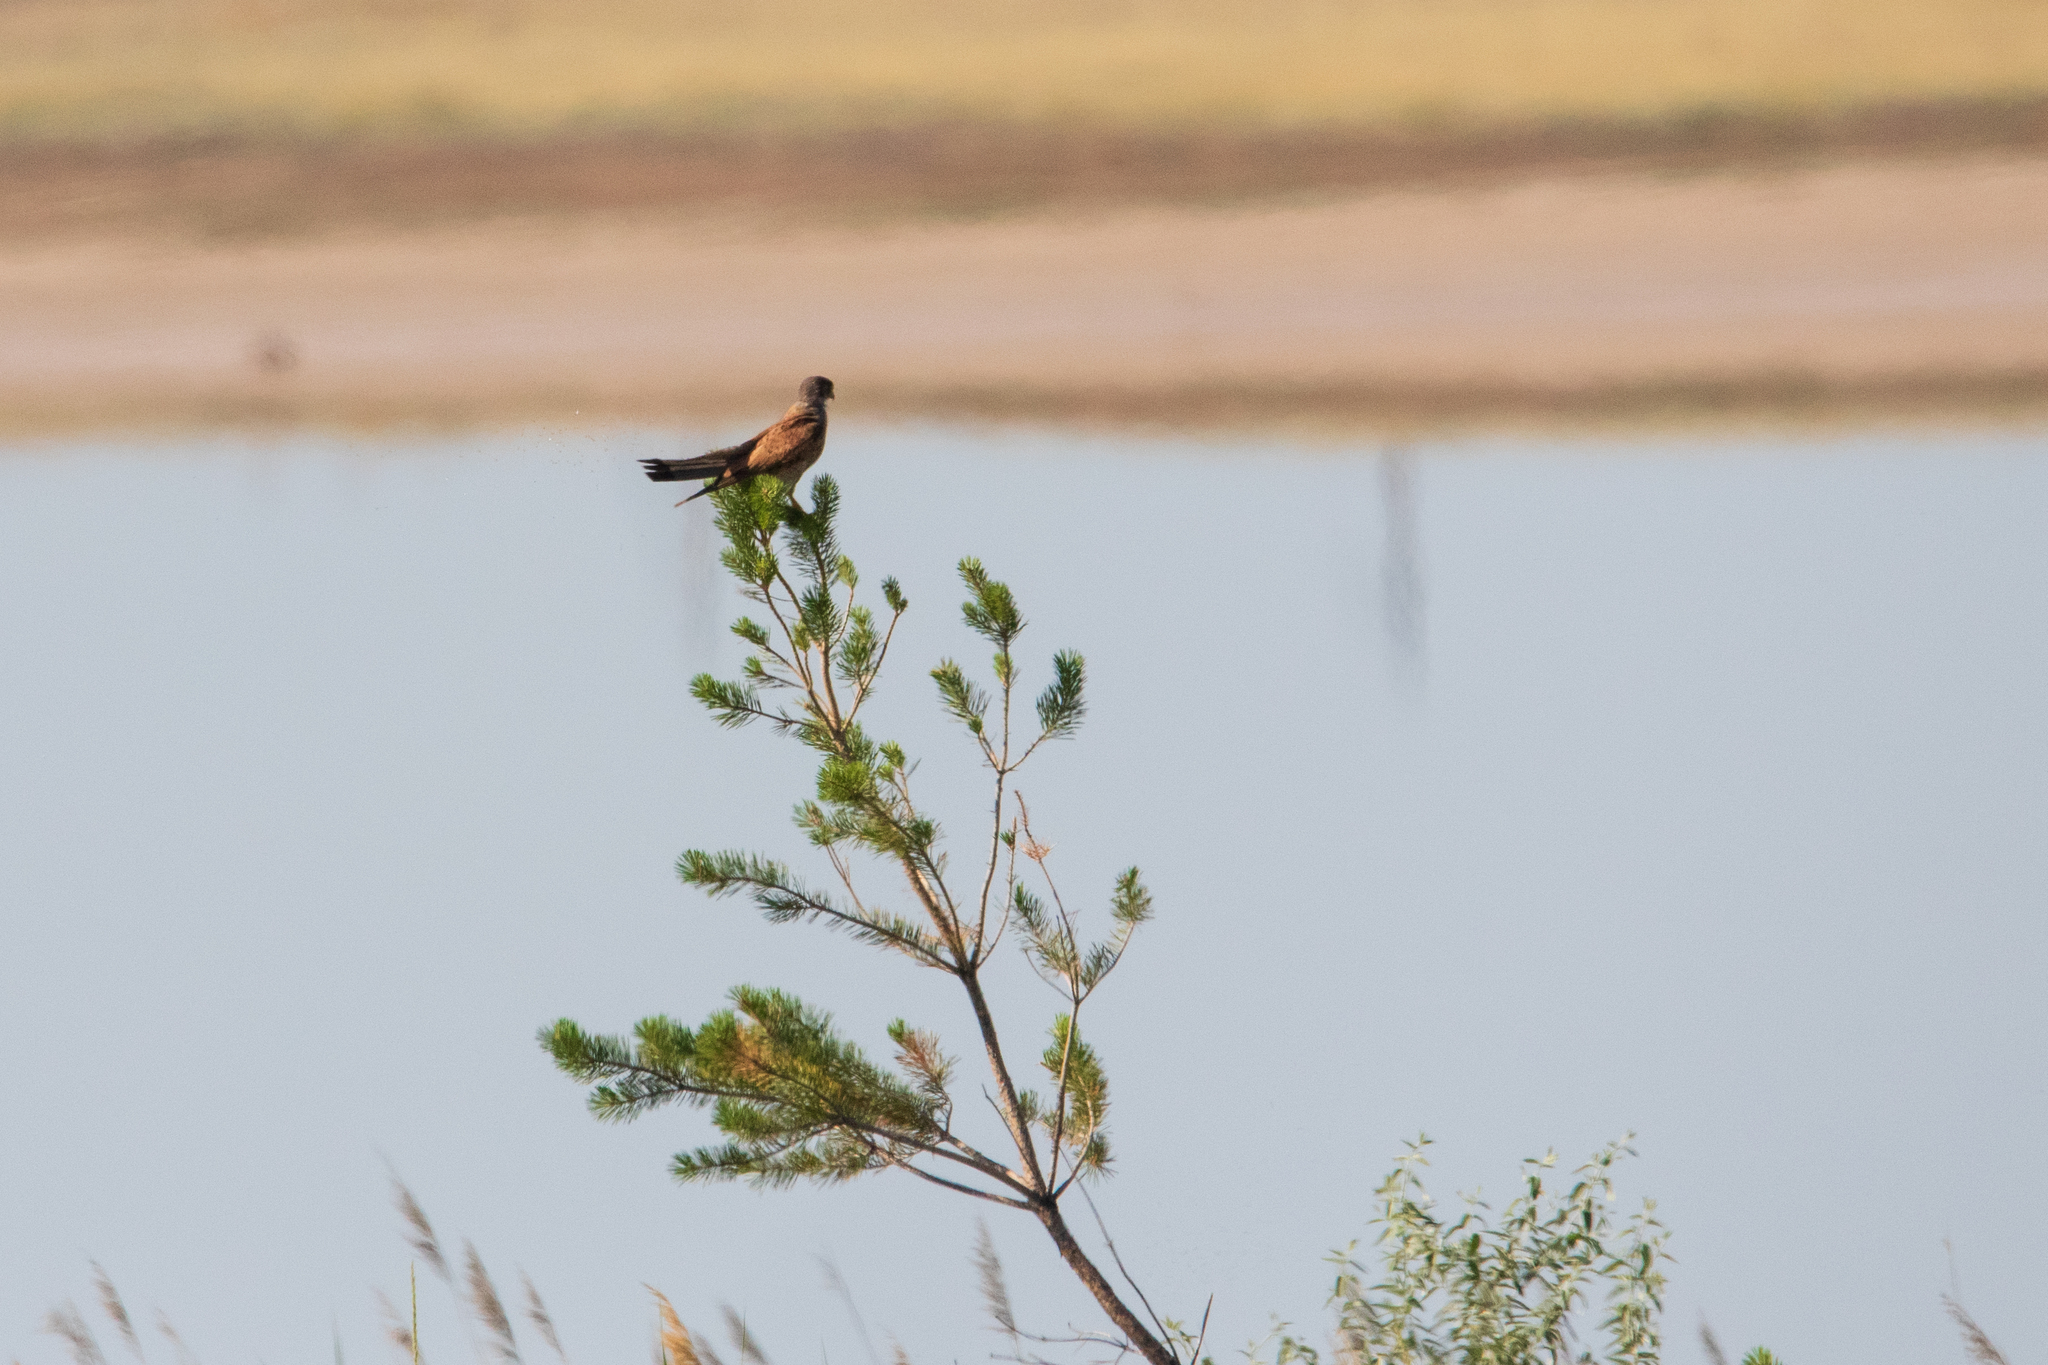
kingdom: Animalia
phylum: Chordata
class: Aves
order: Falconiformes
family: Falconidae
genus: Falco
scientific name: Falco tinnunculus
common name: Common kestrel
